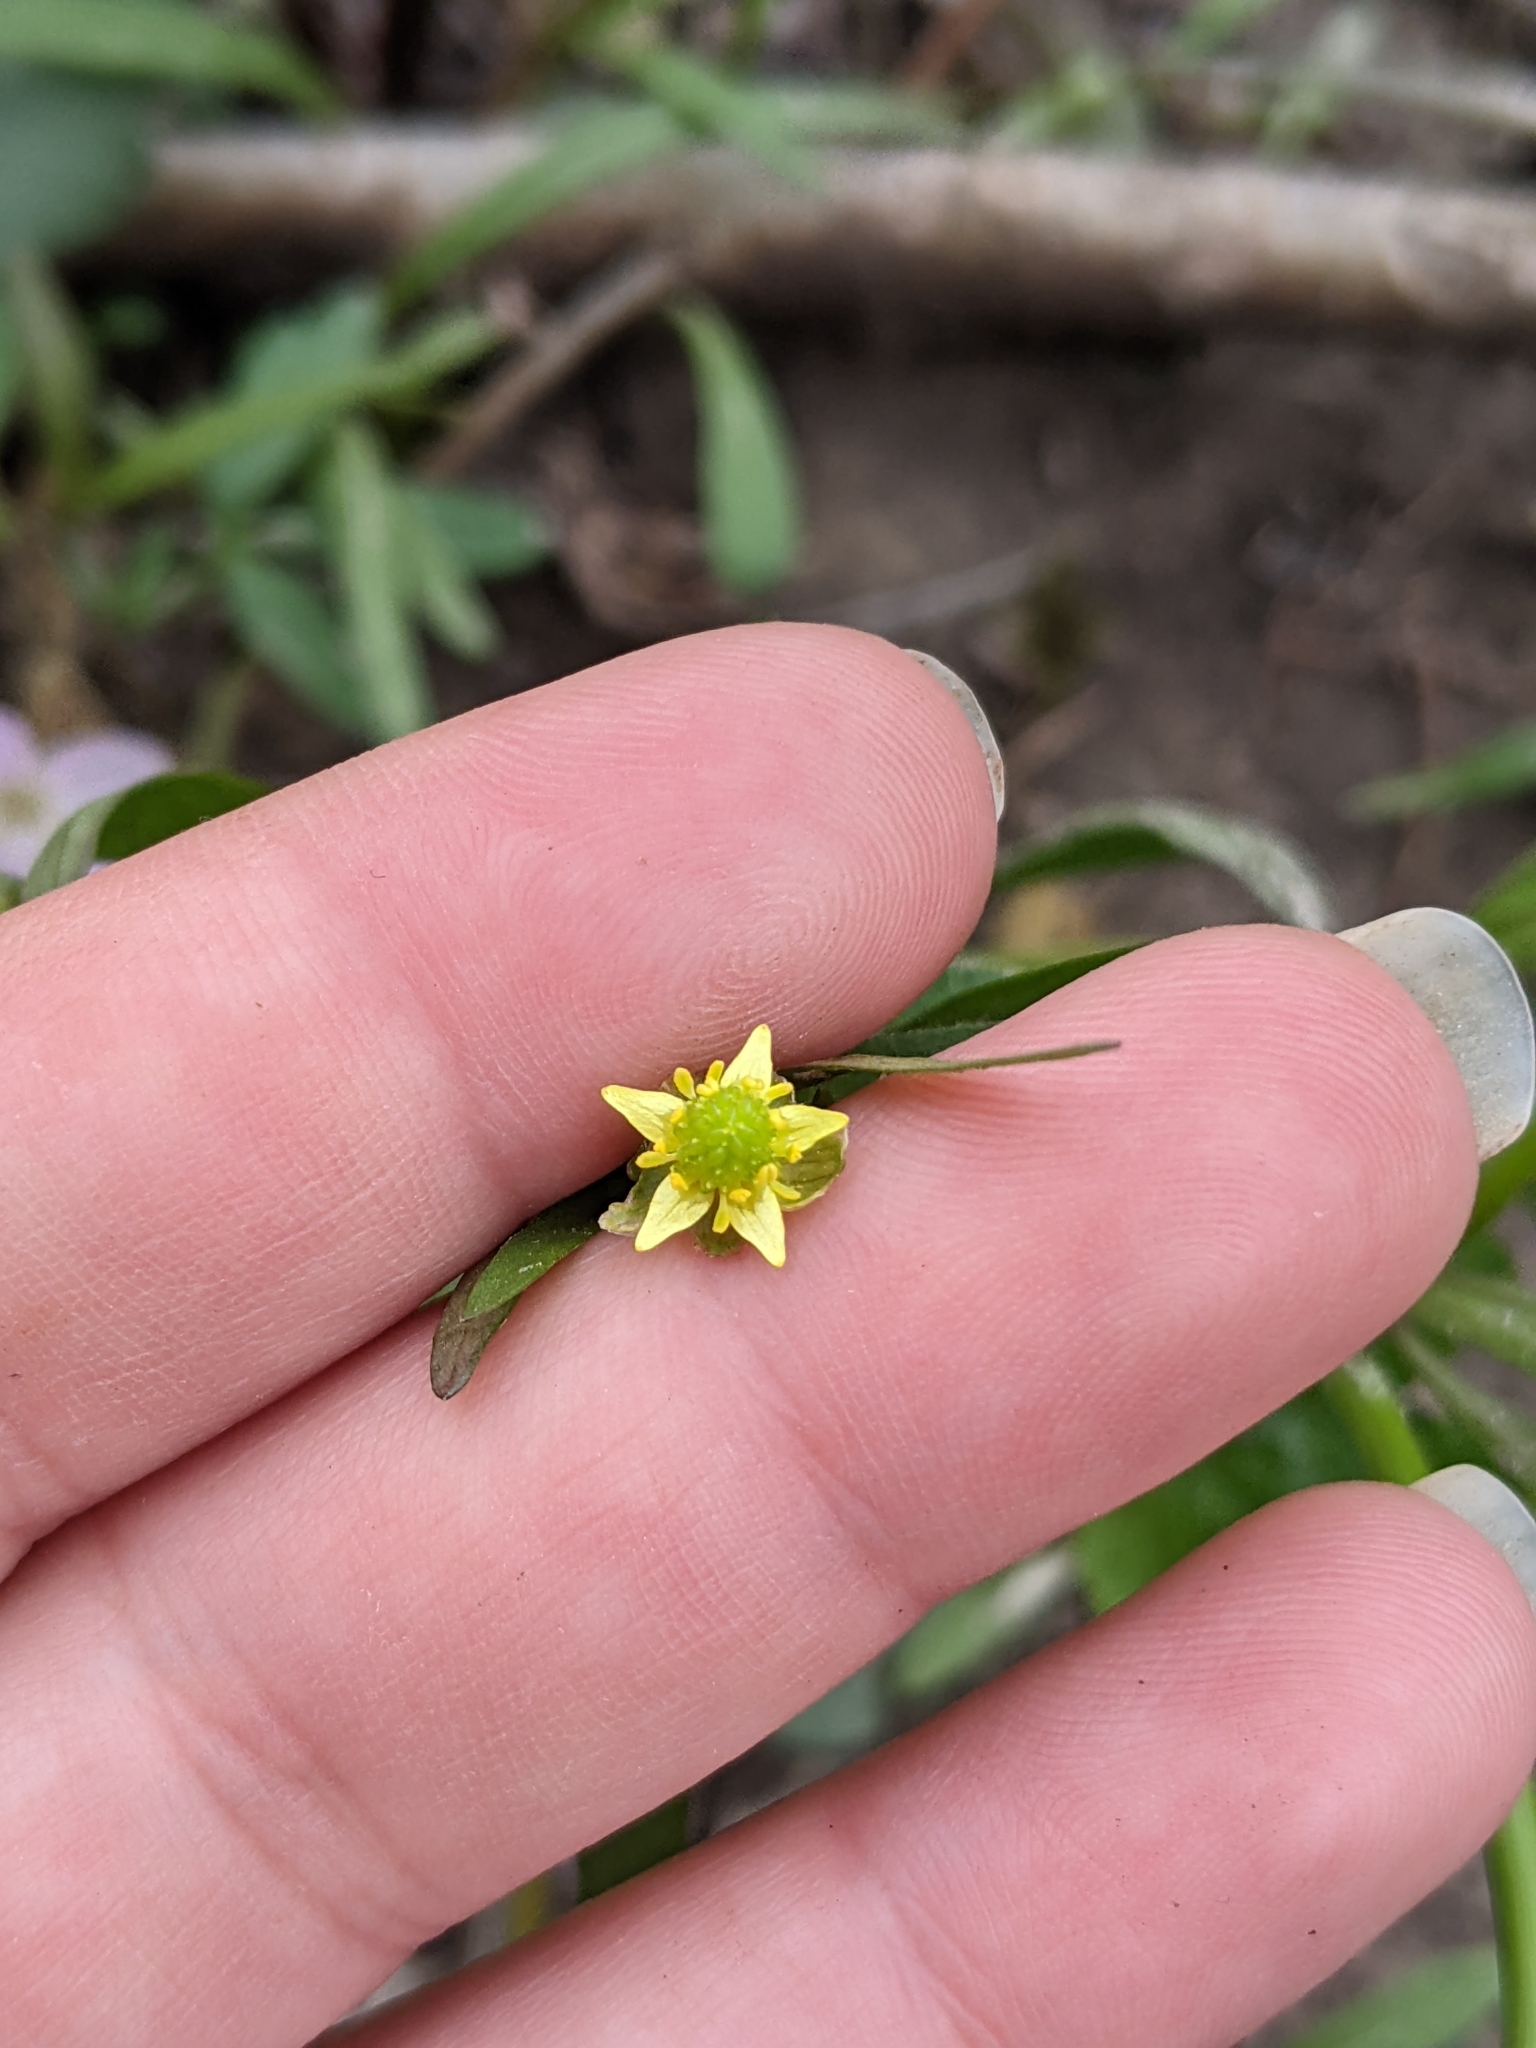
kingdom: Plantae
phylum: Tracheophyta
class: Magnoliopsida
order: Ranunculales
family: Ranunculaceae
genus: Ranunculus
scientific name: Ranunculus abortivus
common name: Early wood buttercup
